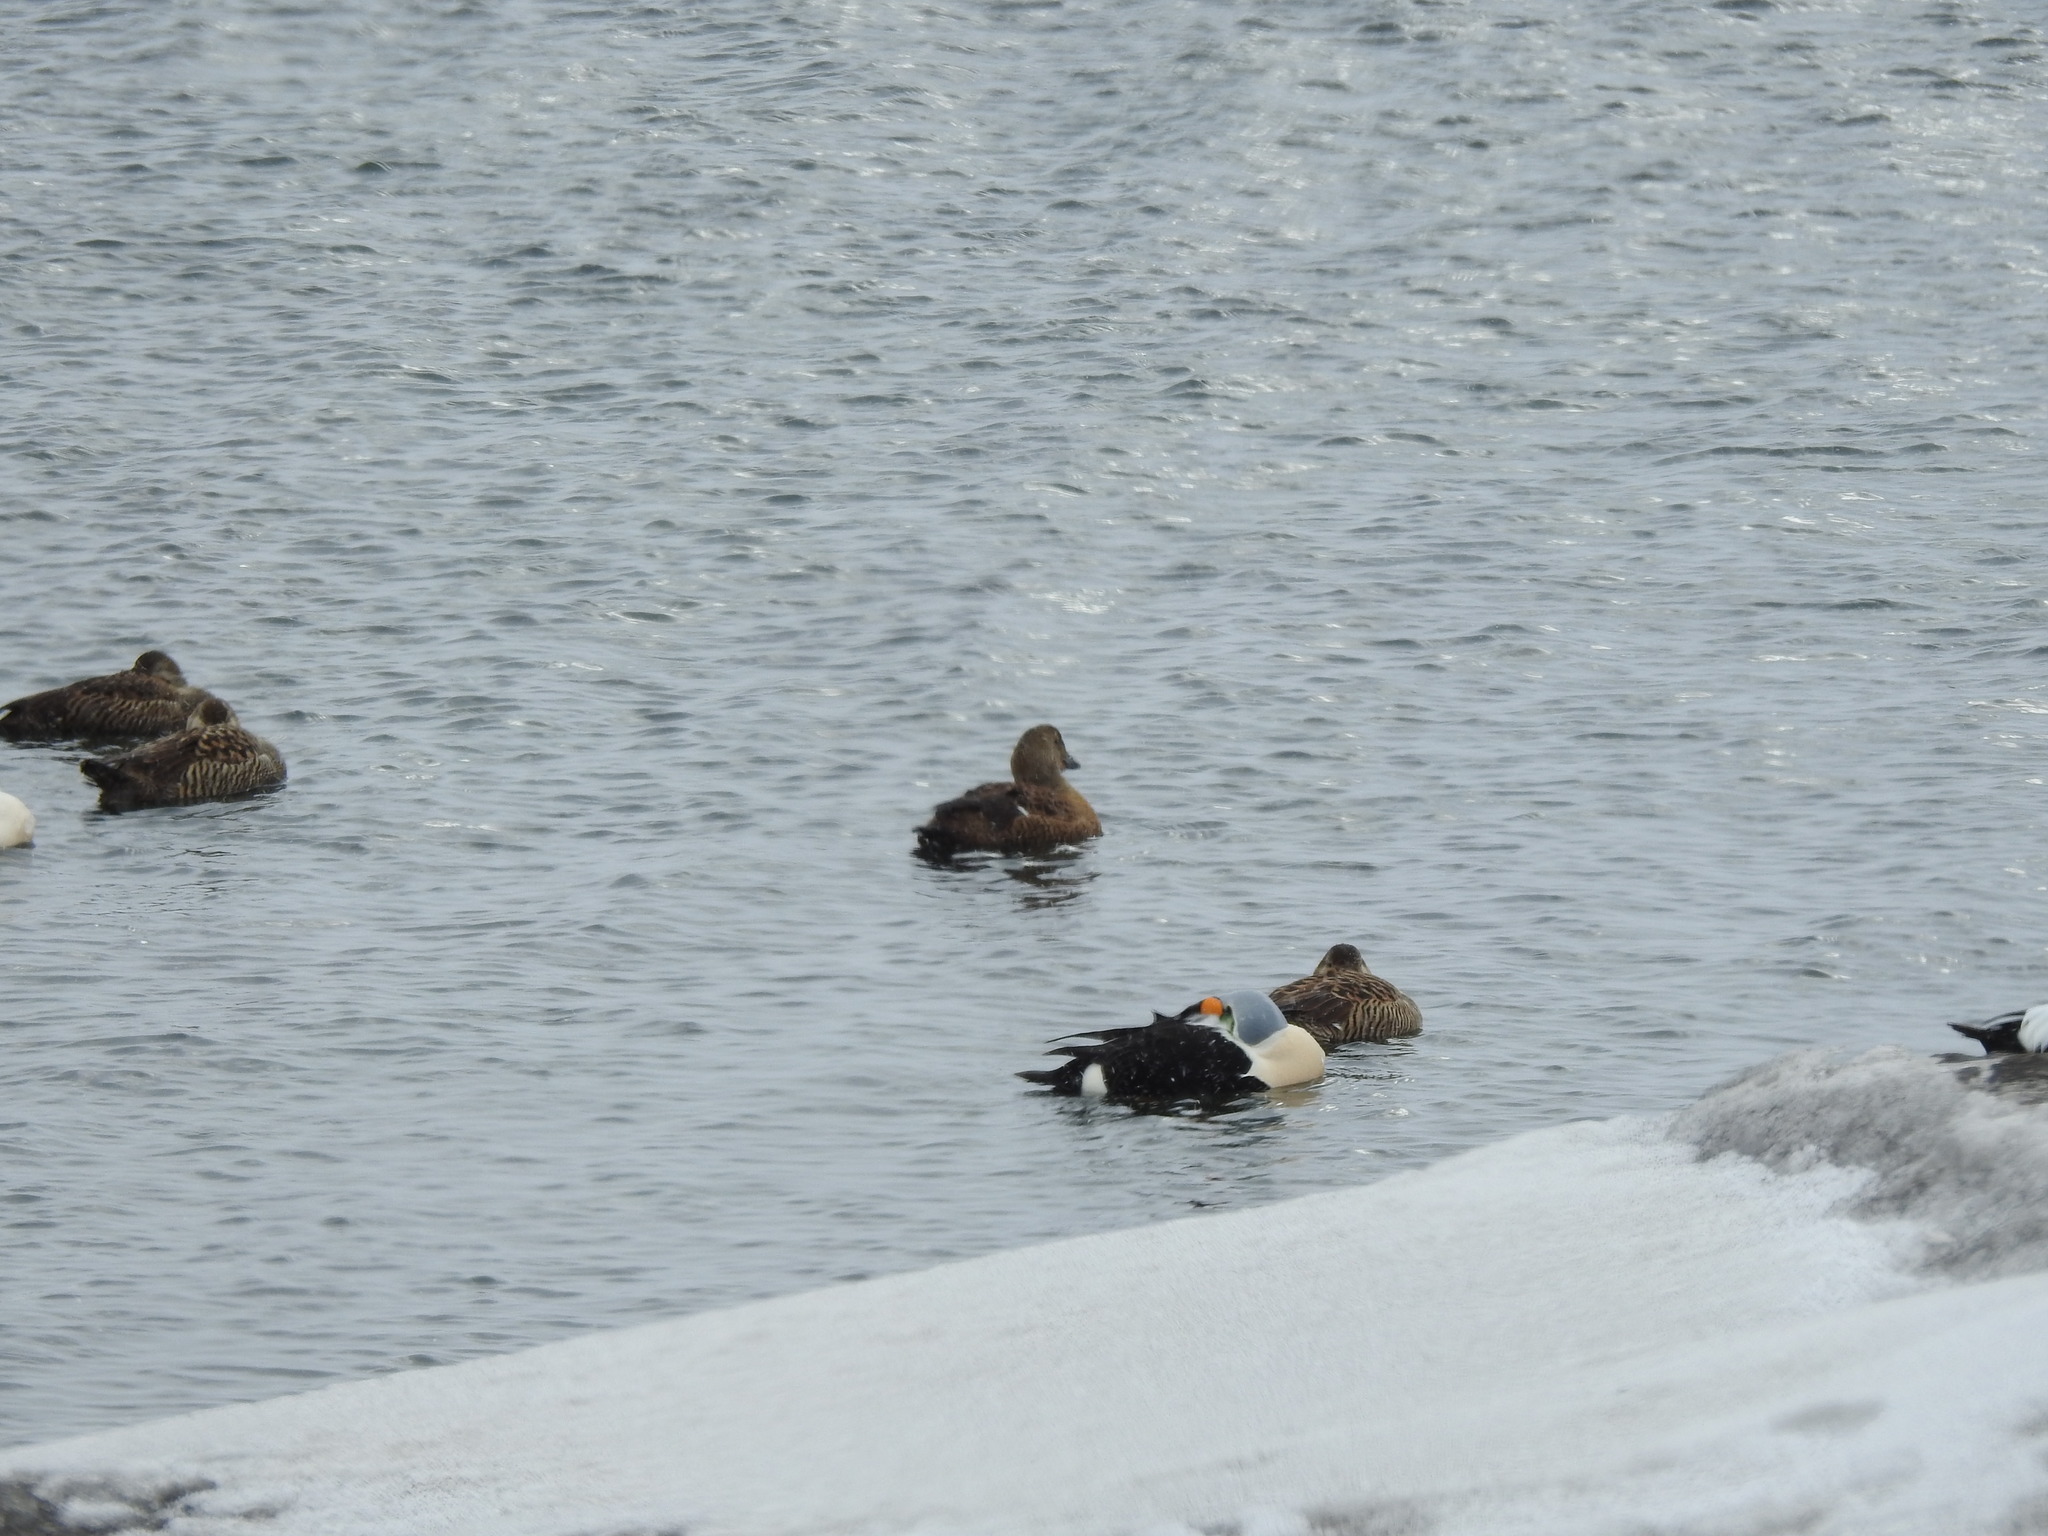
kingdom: Animalia
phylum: Chordata
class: Aves
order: Anseriformes
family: Anatidae
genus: Somateria
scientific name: Somateria spectabilis
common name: King eider
